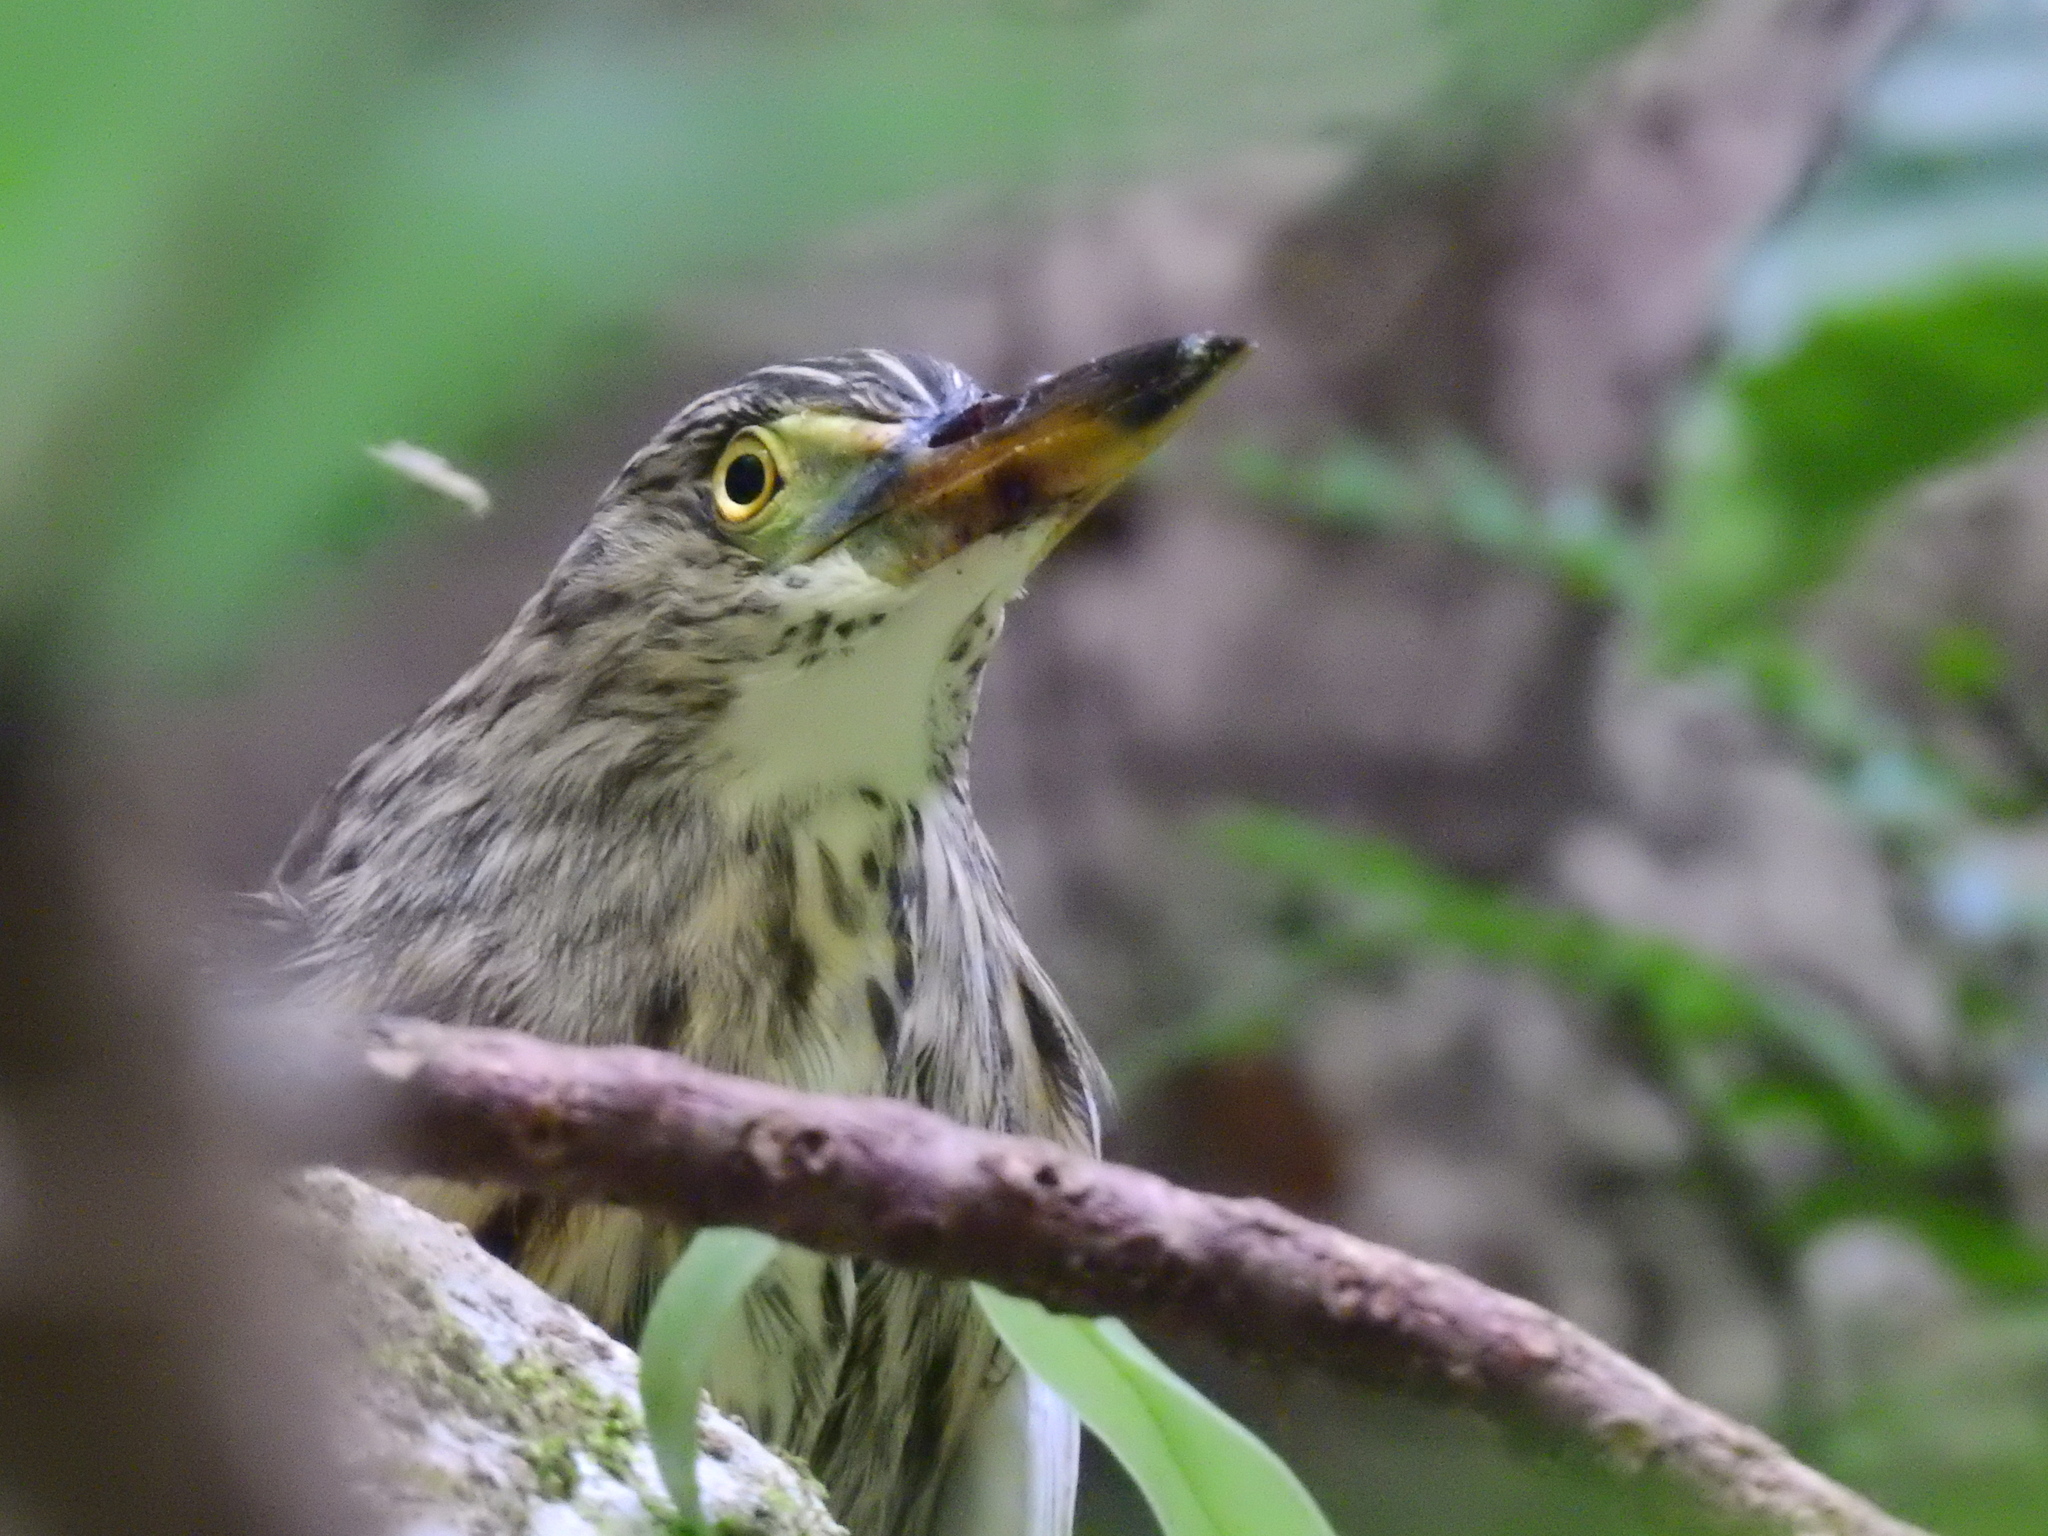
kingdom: Animalia
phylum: Chordata
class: Aves
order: Pelecaniformes
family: Ardeidae
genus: Ardeola
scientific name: Ardeola grayii
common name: Indian pond heron
